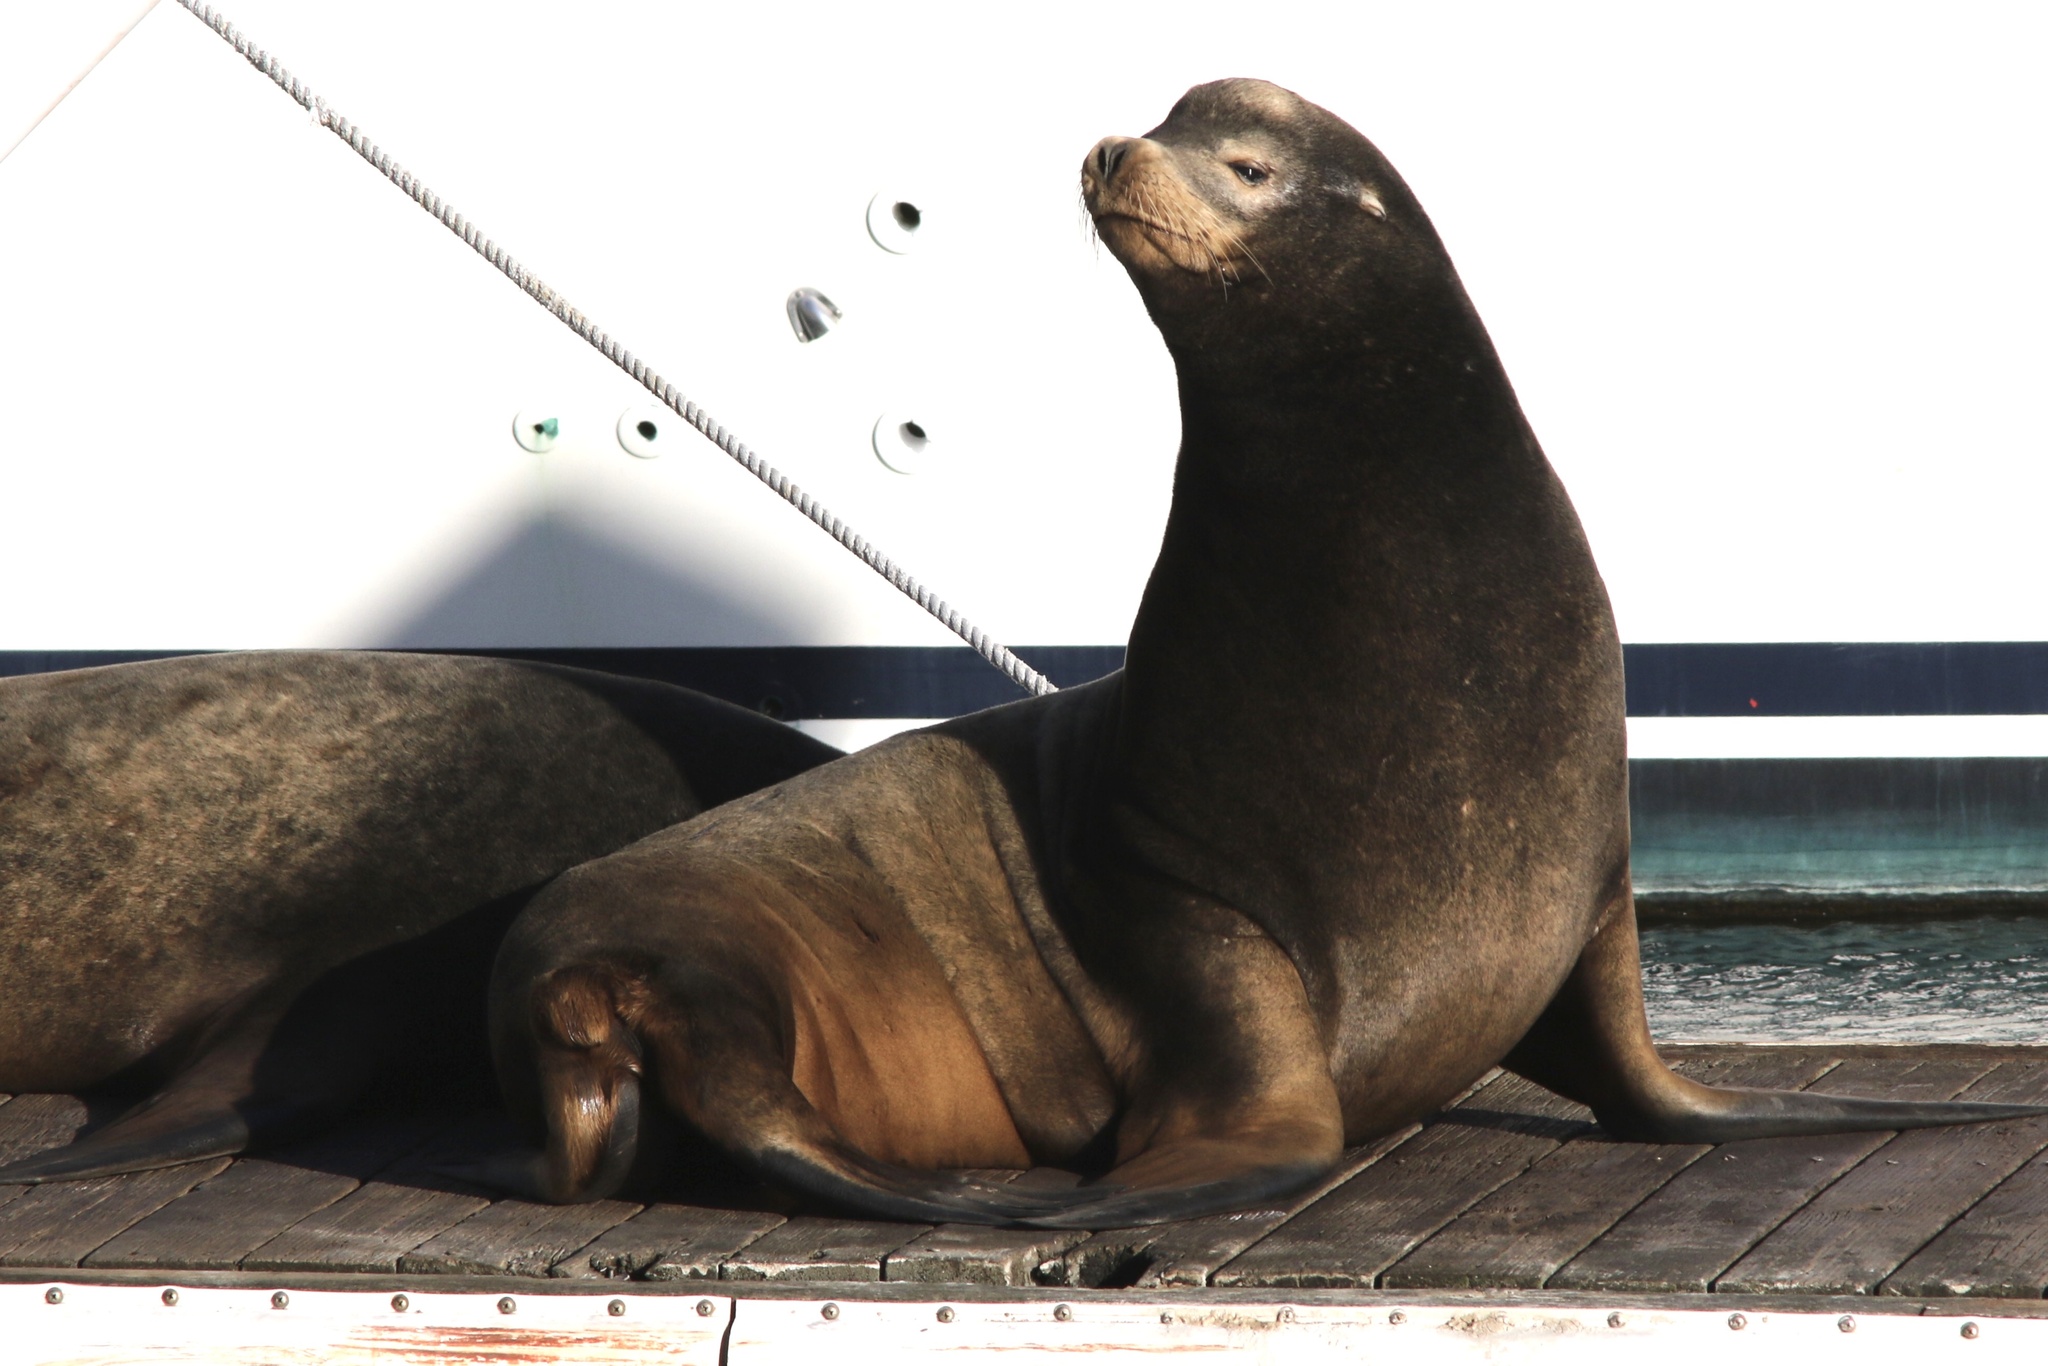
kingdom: Animalia
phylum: Chordata
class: Mammalia
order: Carnivora
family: Otariidae
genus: Zalophus
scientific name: Zalophus californianus
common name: California sea lion
